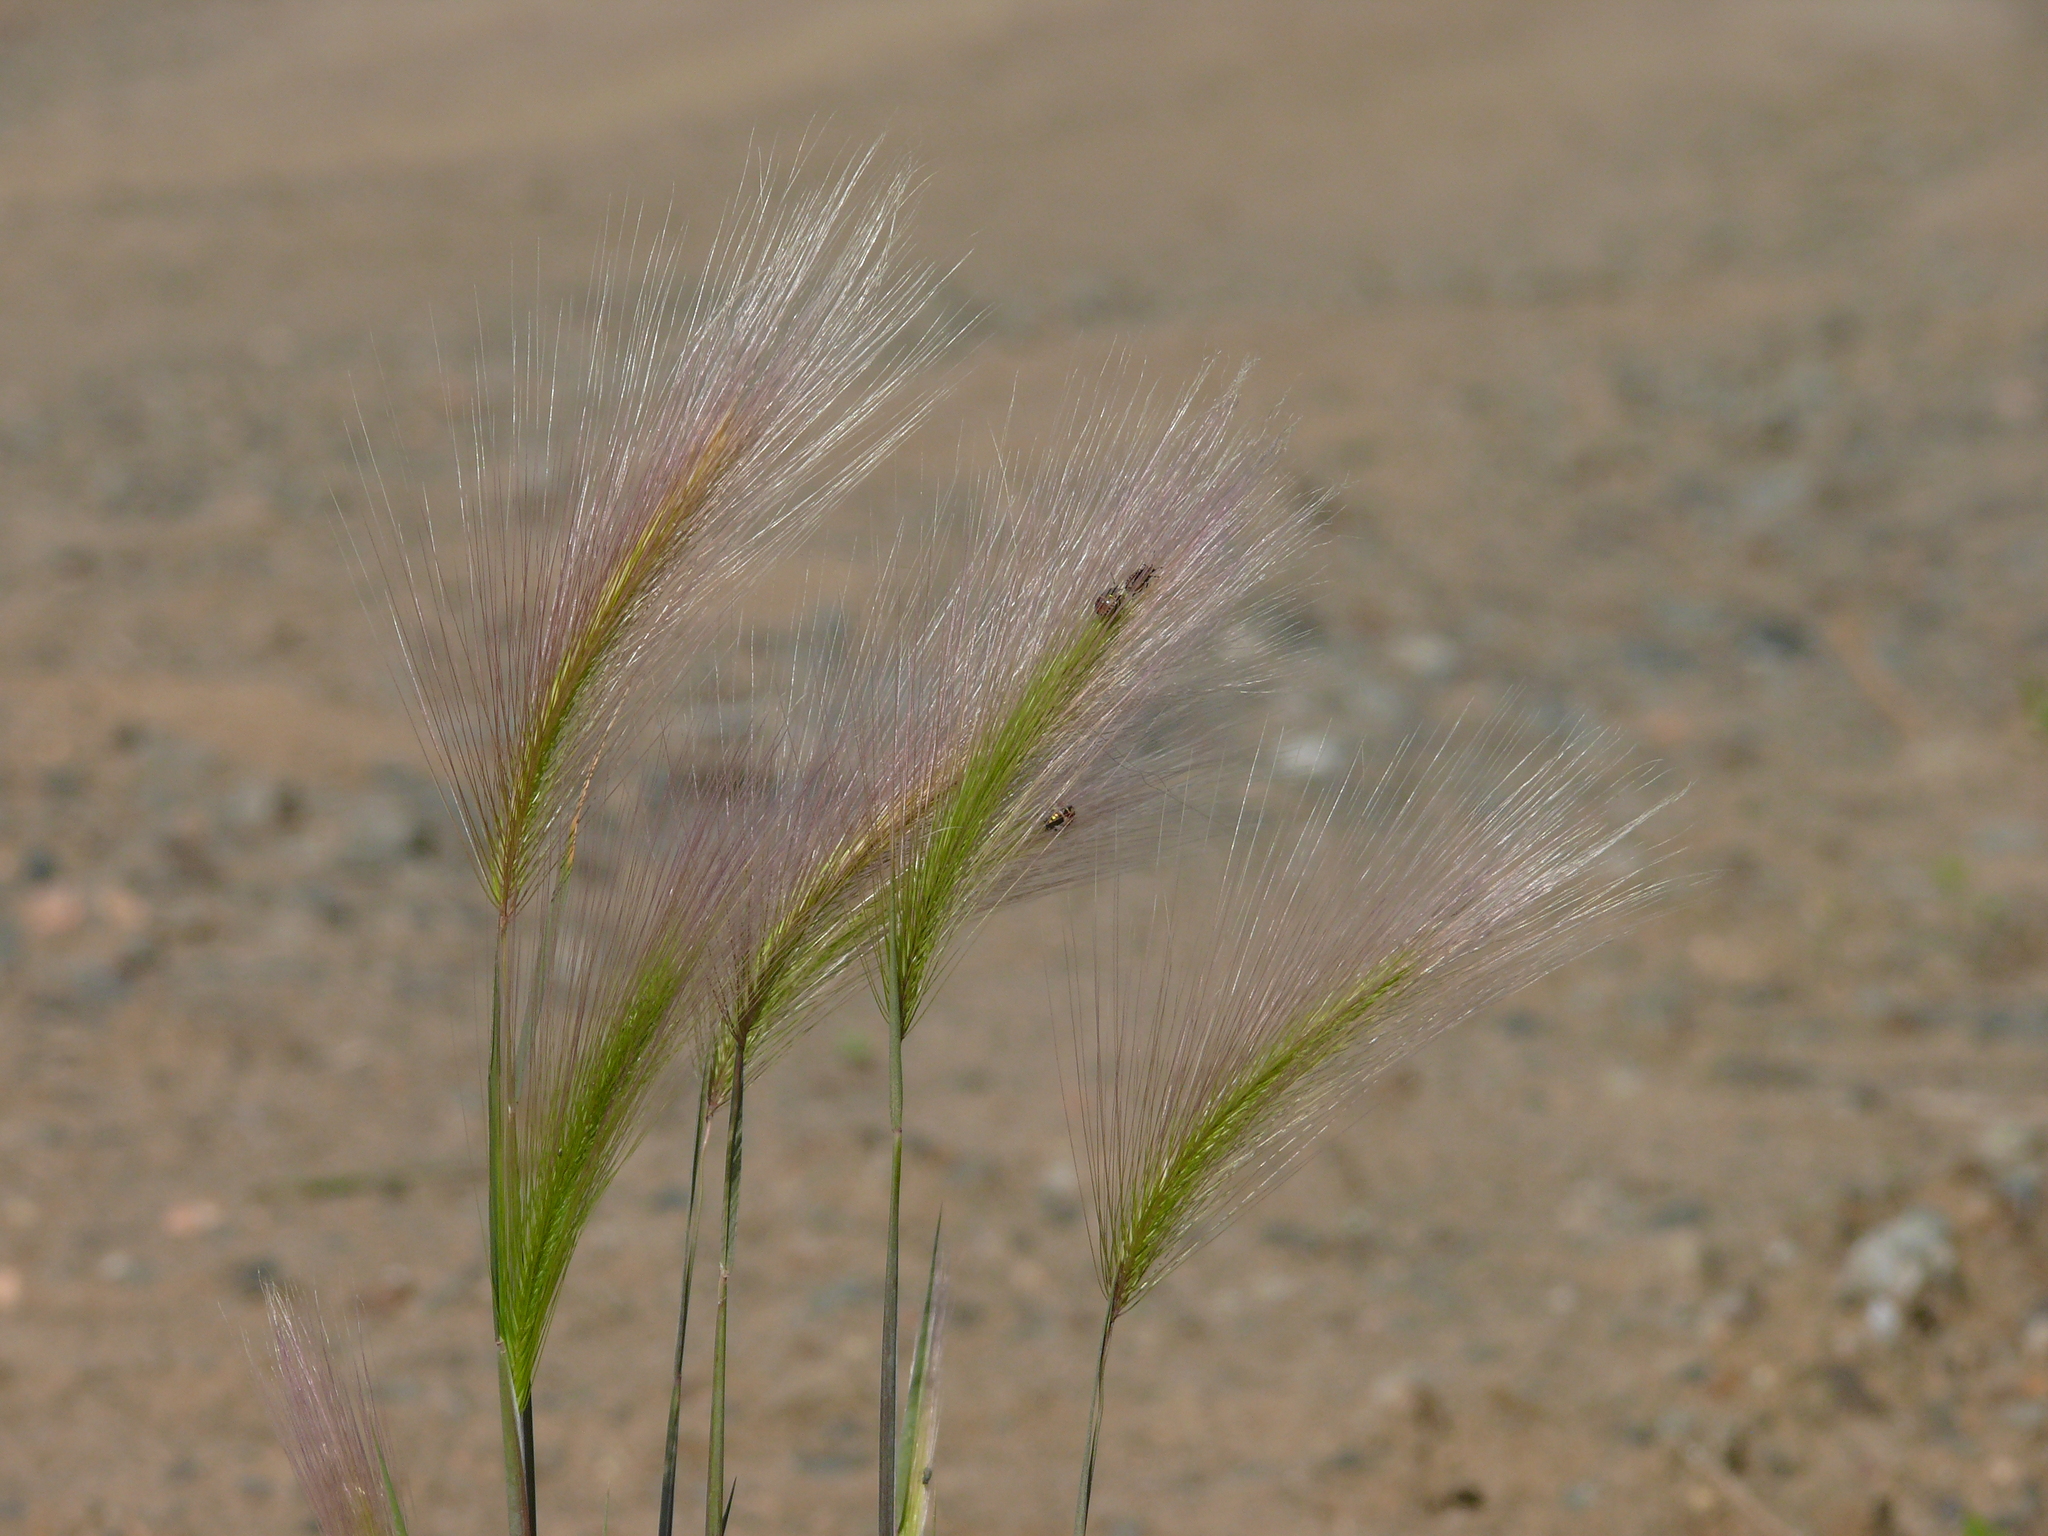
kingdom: Plantae
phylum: Tracheophyta
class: Liliopsida
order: Poales
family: Poaceae
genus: Hordeum
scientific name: Hordeum jubatum
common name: Foxtail barley
